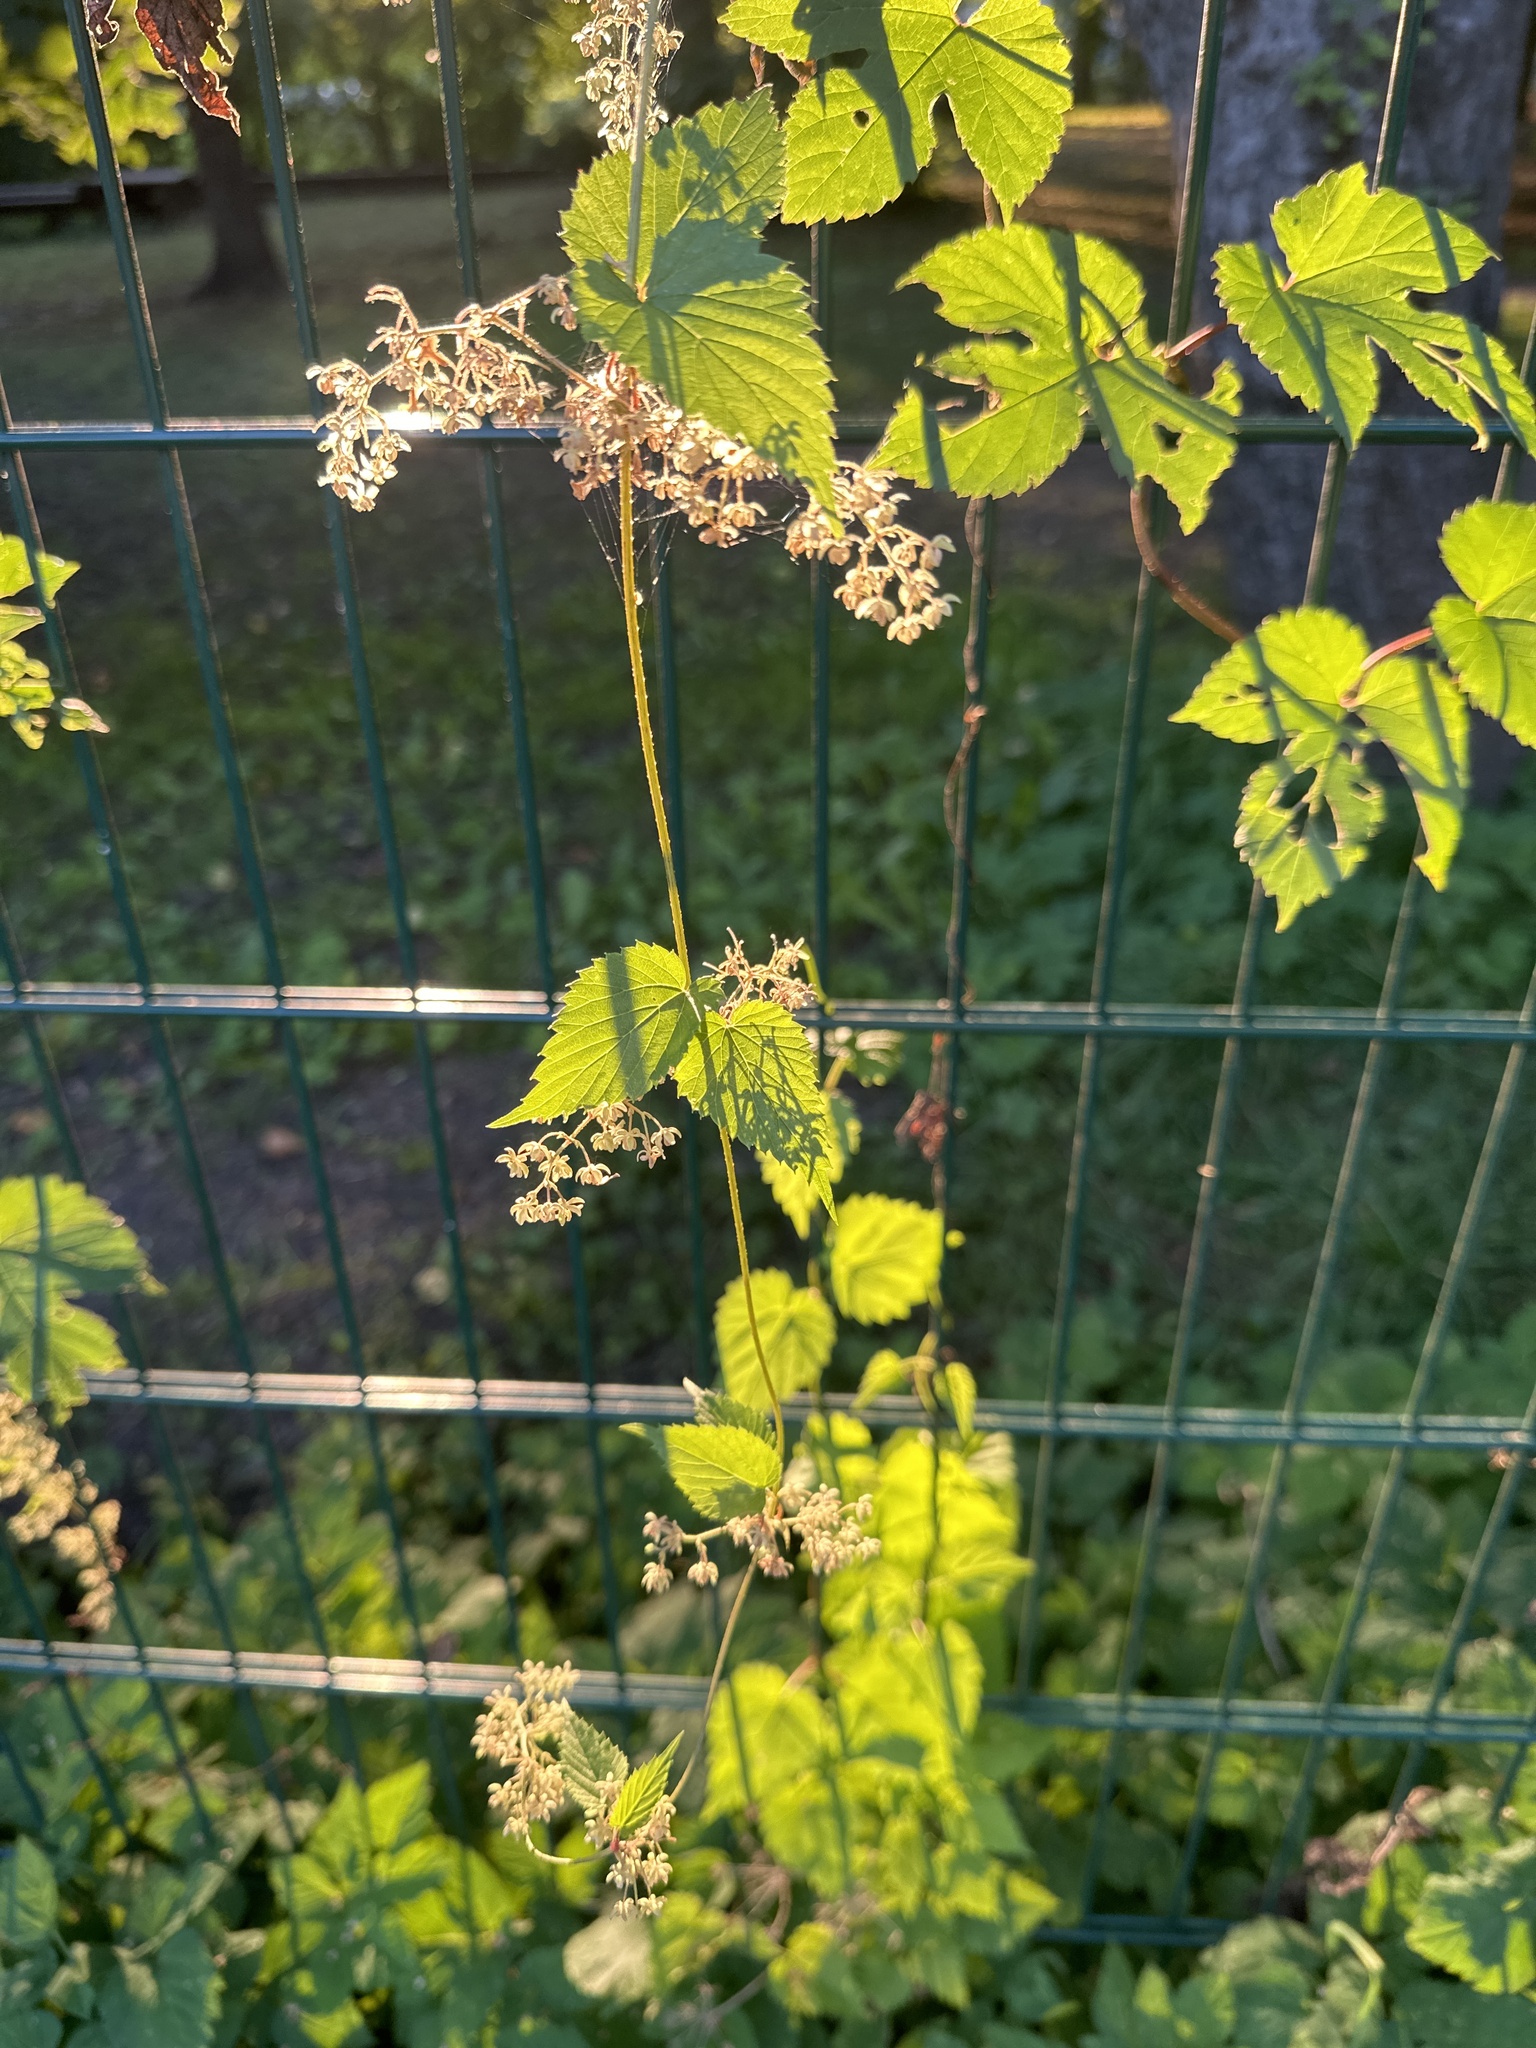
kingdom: Plantae
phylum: Tracheophyta
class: Magnoliopsida
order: Rosales
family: Cannabaceae
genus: Humulus
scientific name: Humulus lupulus
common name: Hop
